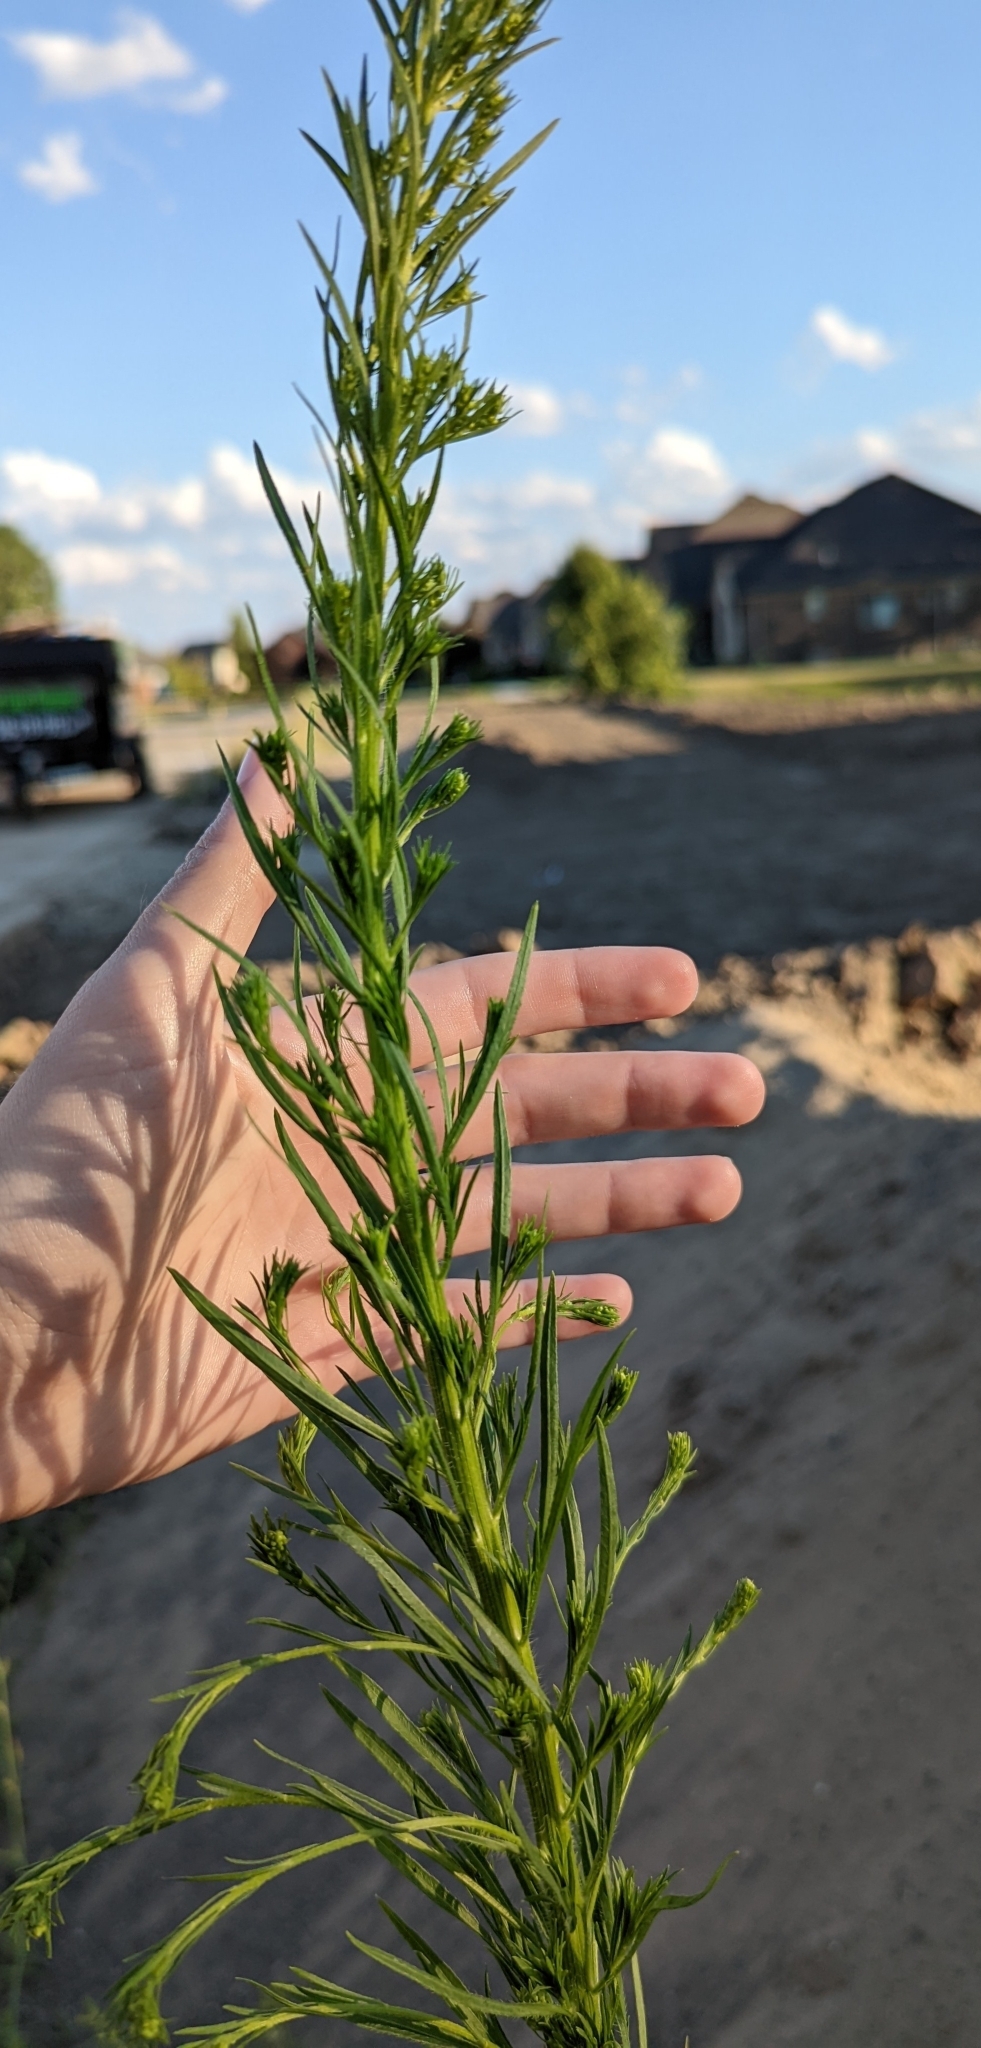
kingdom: Plantae
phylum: Tracheophyta
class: Magnoliopsida
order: Asterales
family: Asteraceae
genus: Erigeron
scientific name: Erigeron canadensis
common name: Canadian fleabane
